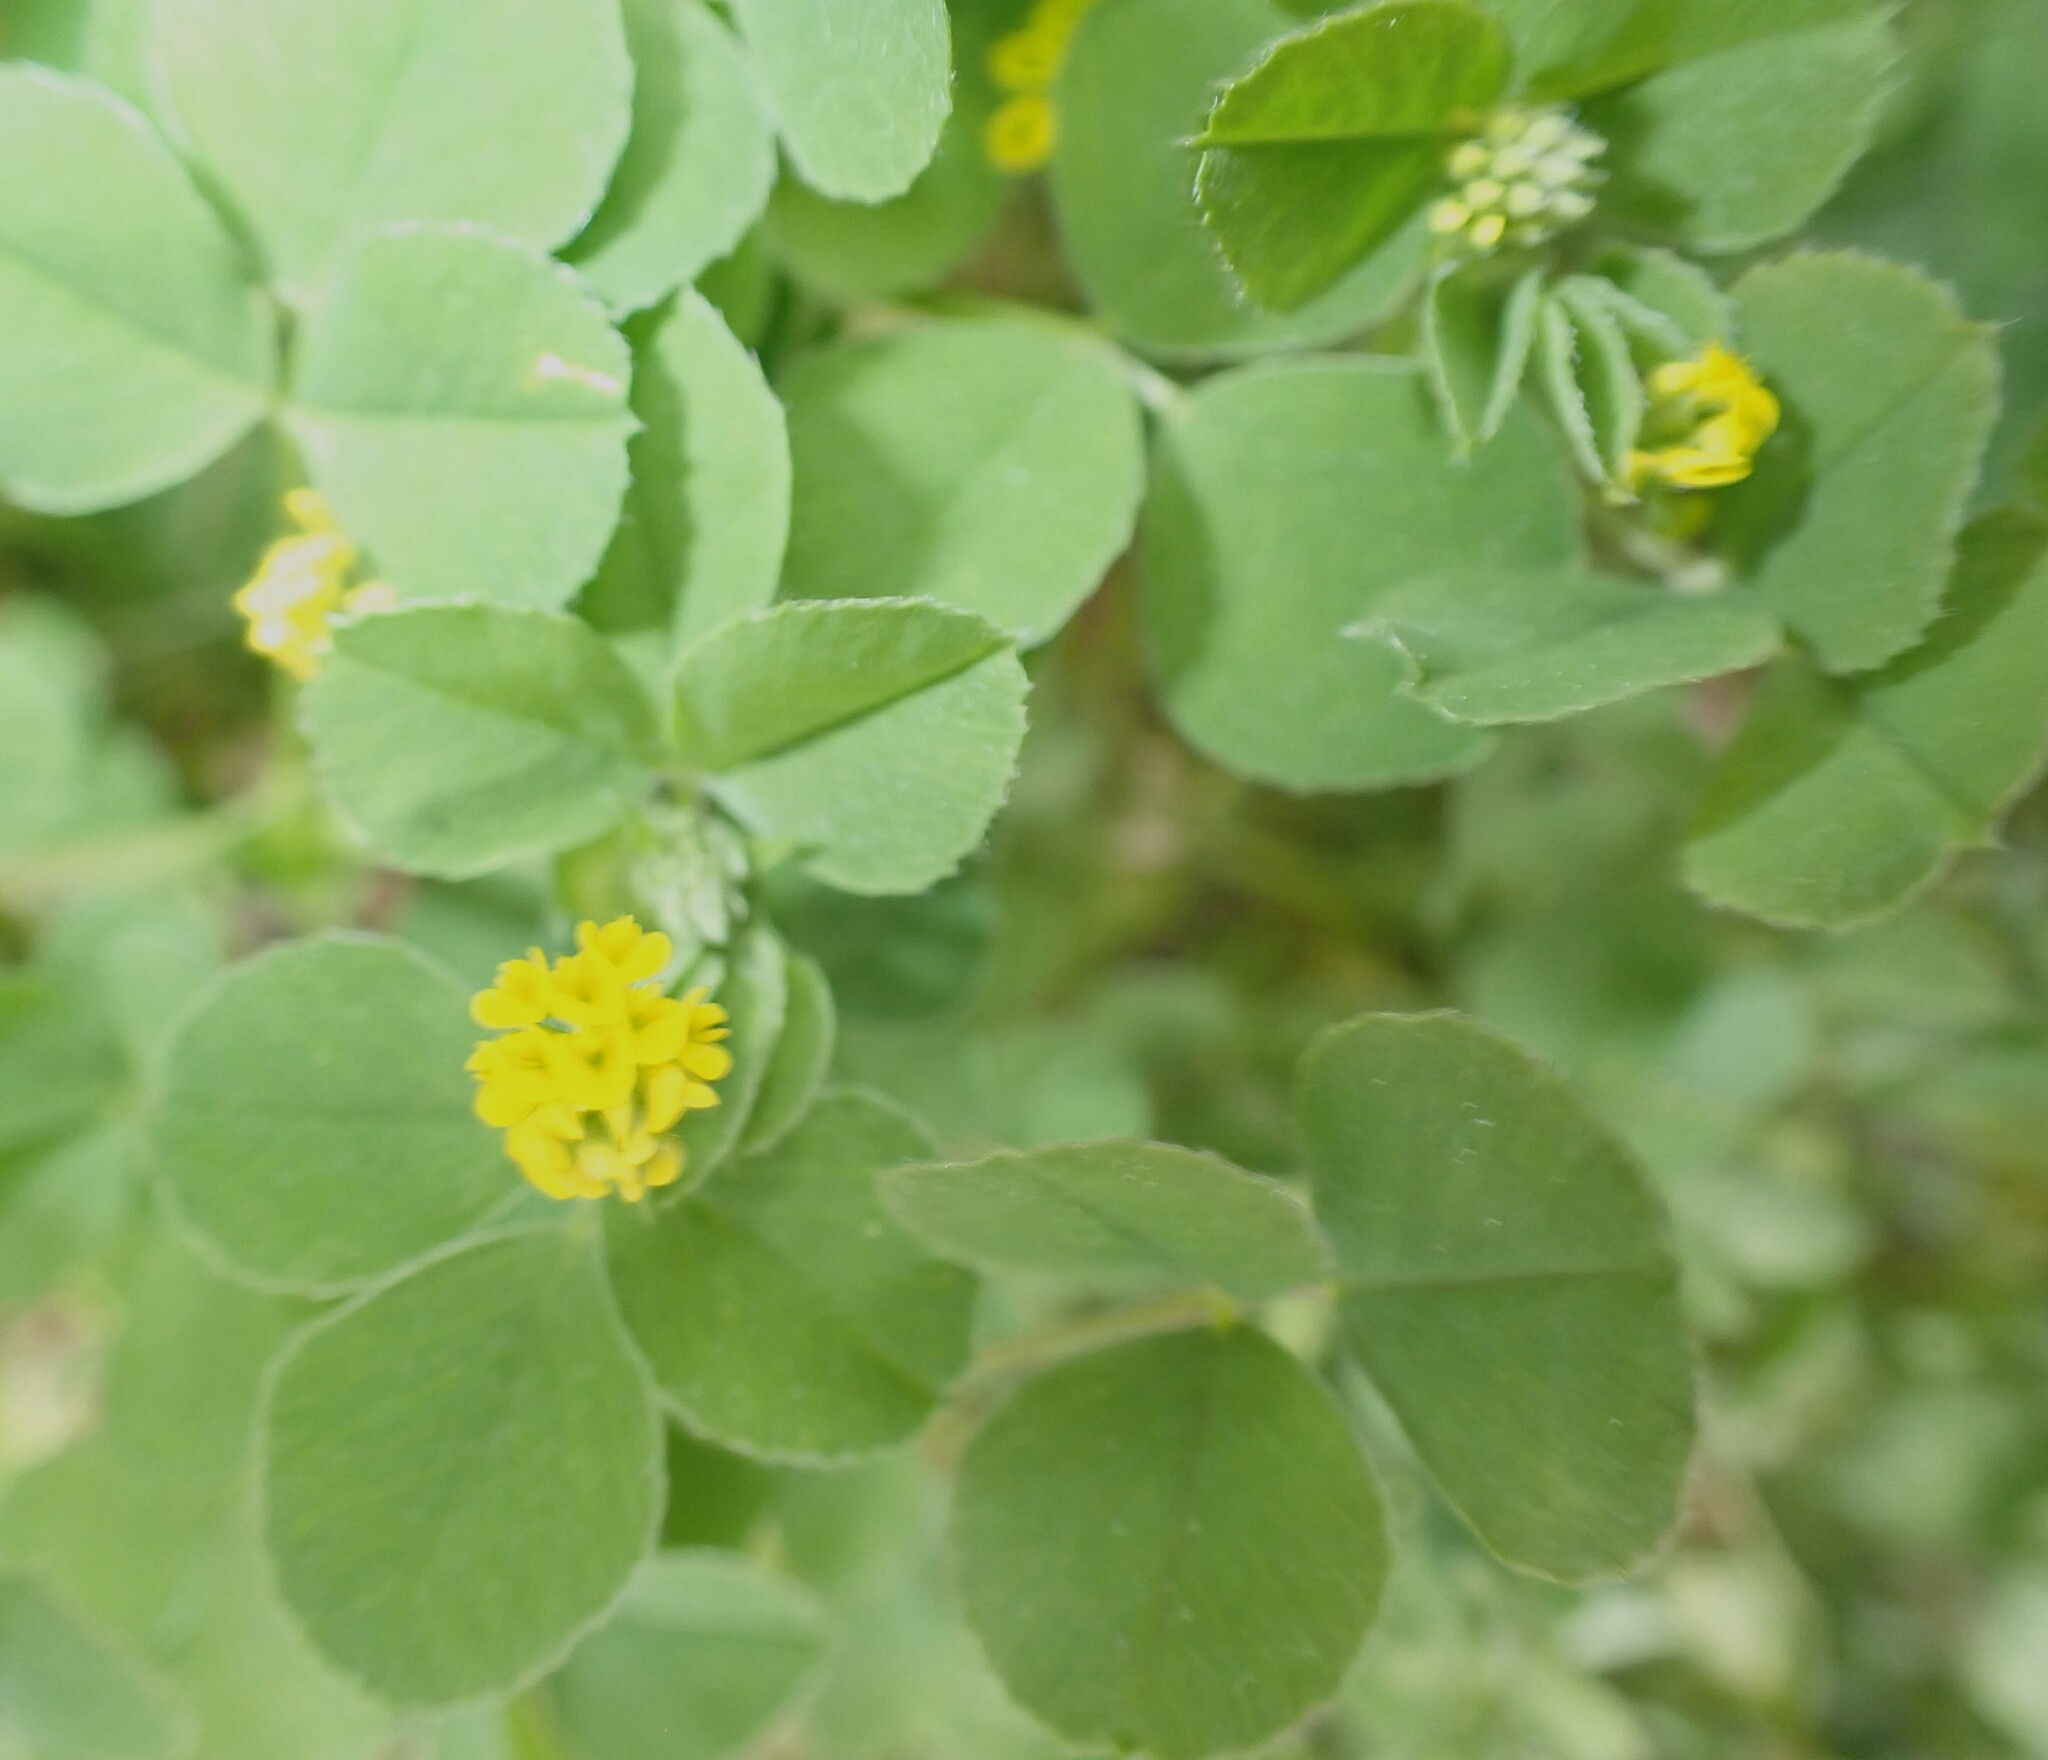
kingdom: Plantae
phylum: Tracheophyta
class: Magnoliopsida
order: Fabales
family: Fabaceae
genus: Medicago
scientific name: Medicago lupulina
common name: Black medick
